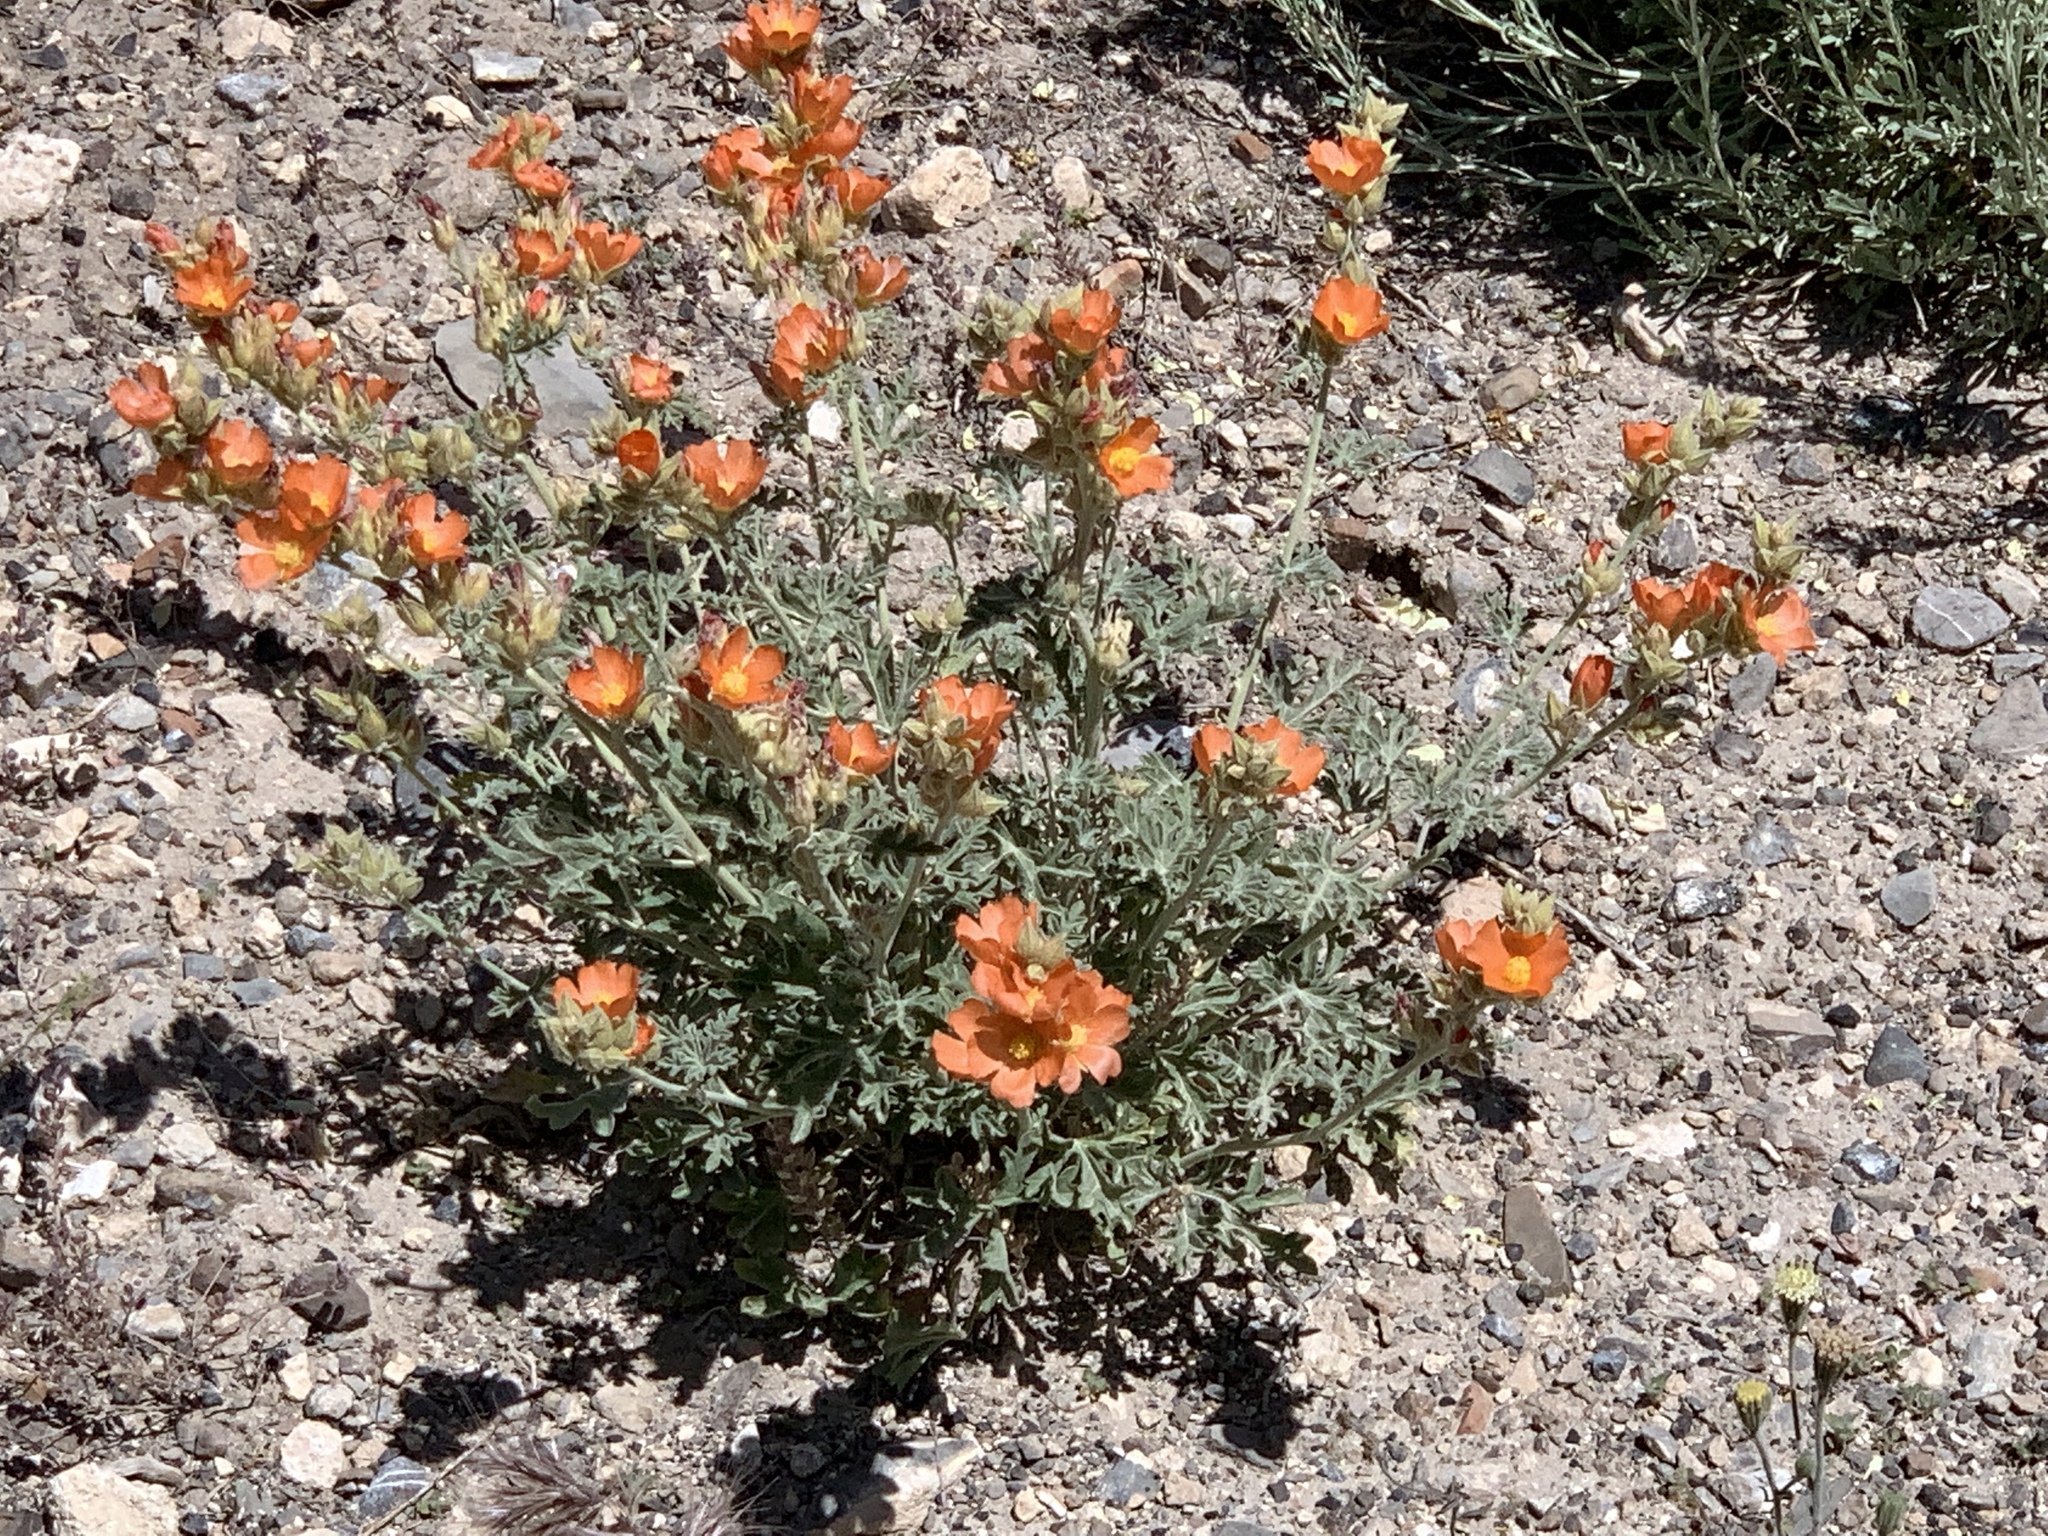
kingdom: Plantae
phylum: Tracheophyta
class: Magnoliopsida
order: Malvales
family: Malvaceae
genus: Sphaeralcea
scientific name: Sphaeralcea grossulariifolia
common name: Current-leaf globe-mallow
